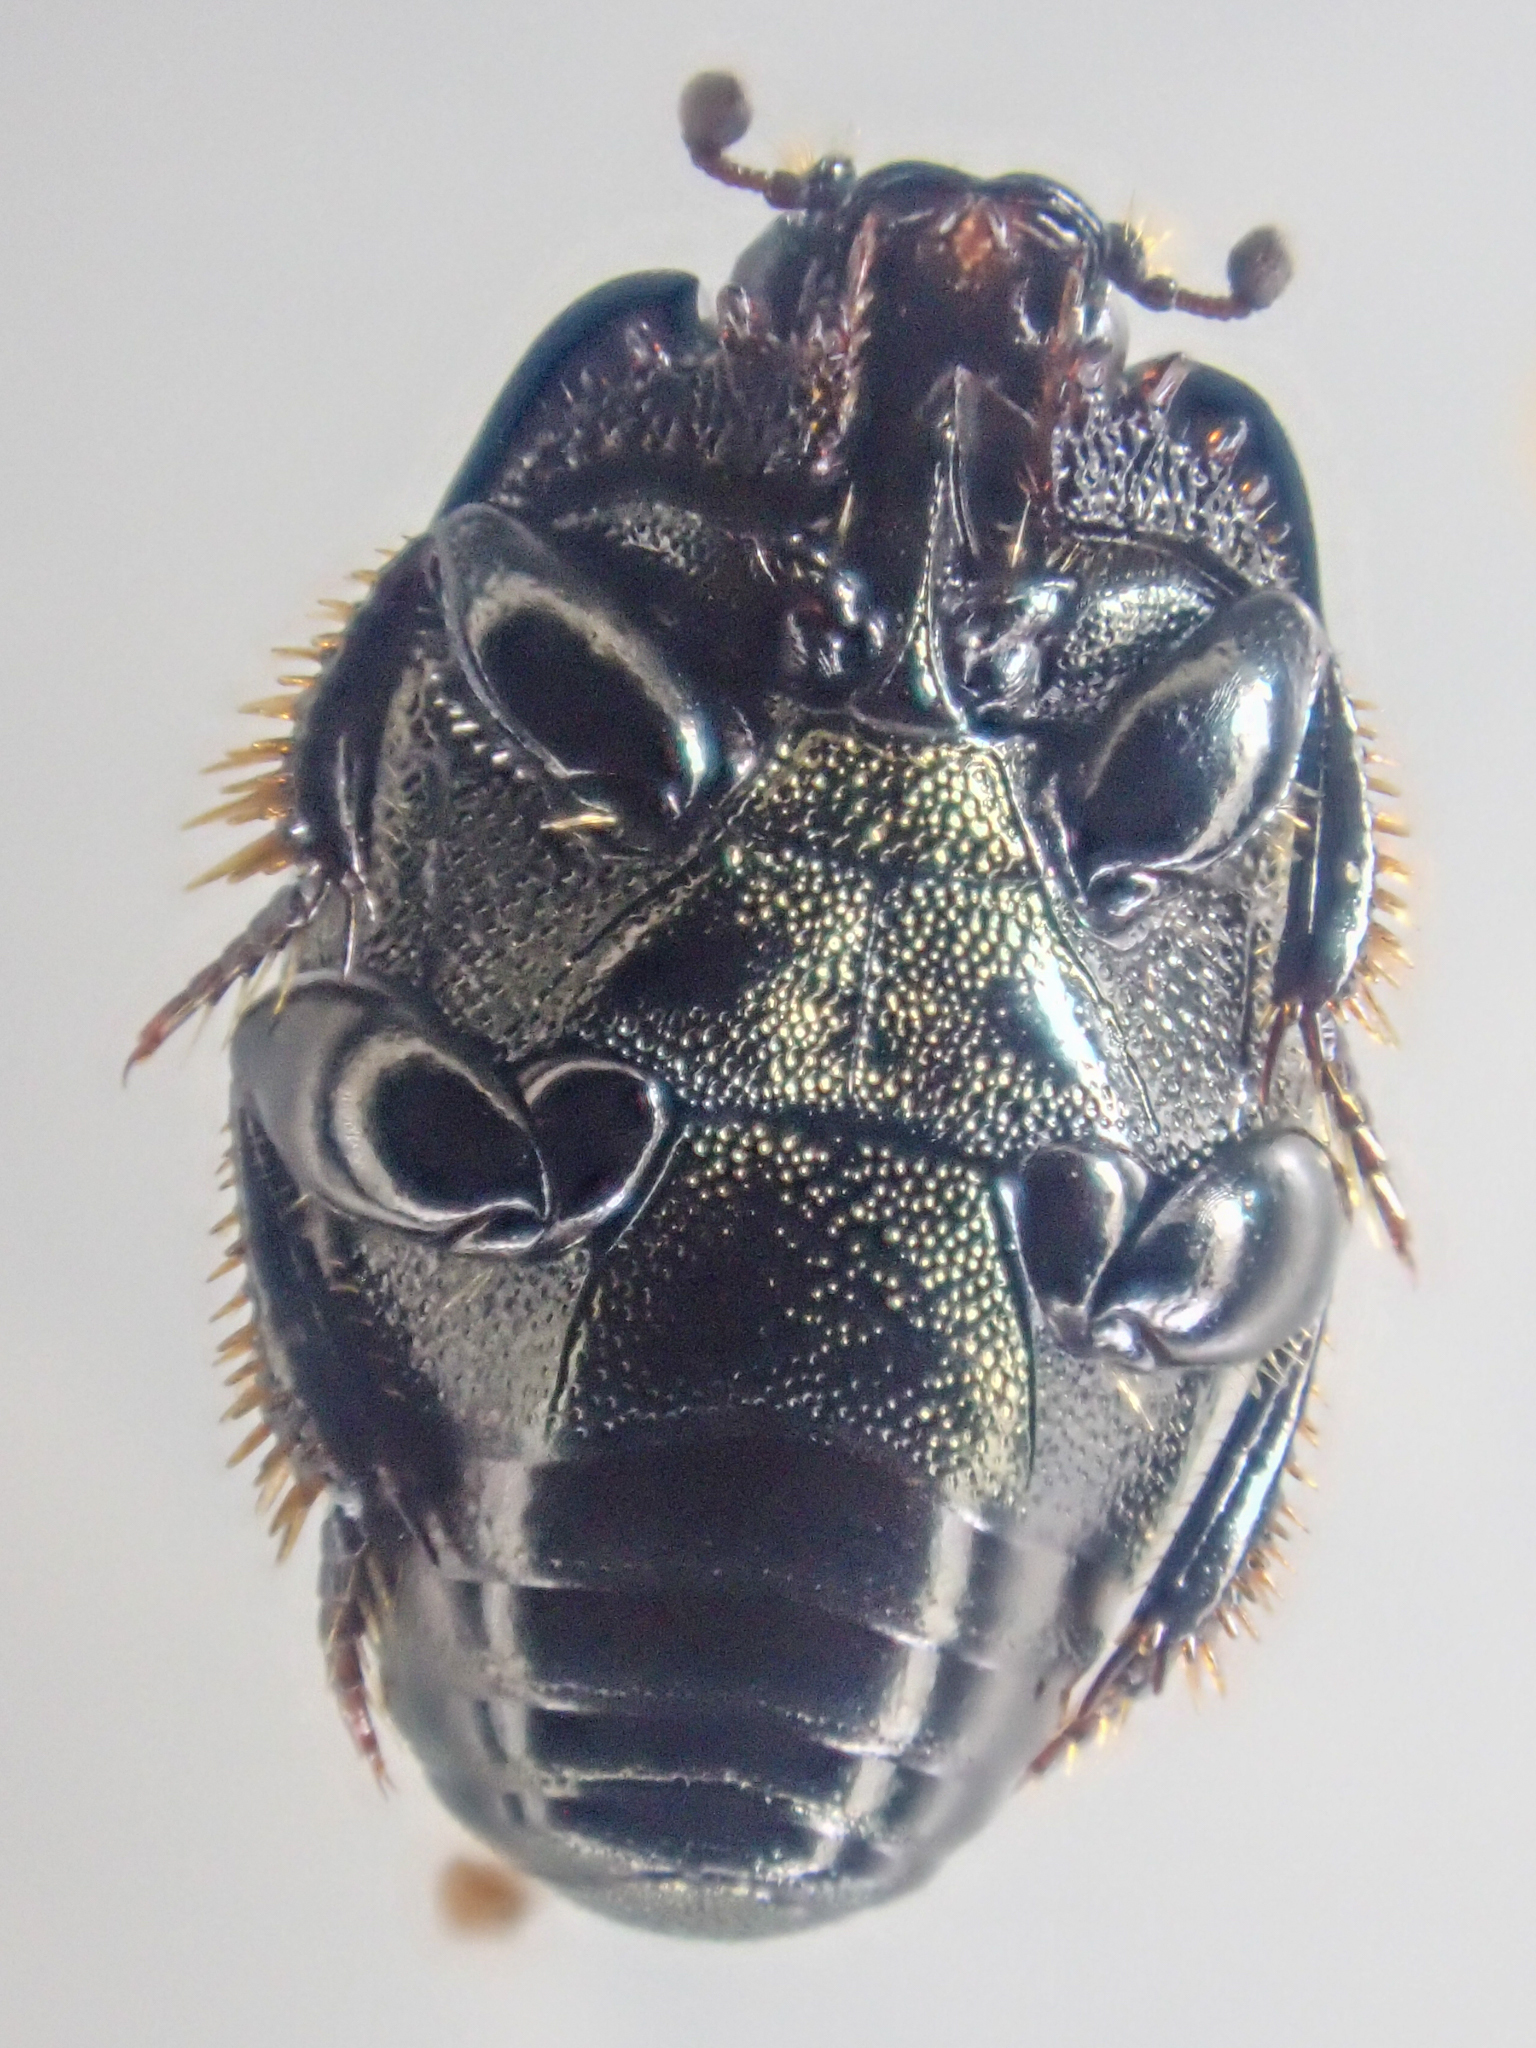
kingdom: Animalia
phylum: Arthropoda
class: Insecta
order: Coleoptera
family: Histeridae
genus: Hypocaccus
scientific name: Hypocaccus bigemmeus
